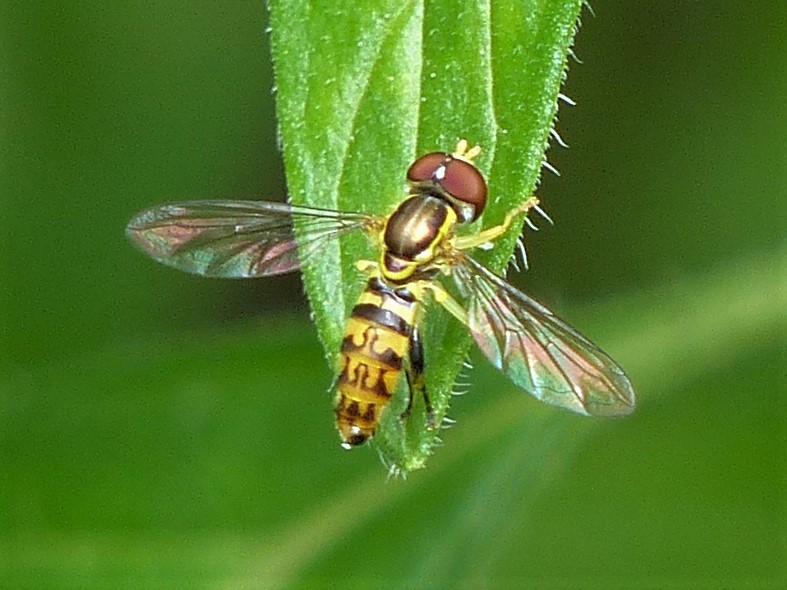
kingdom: Animalia
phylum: Arthropoda
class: Insecta
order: Diptera
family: Syrphidae
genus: Toxomerus
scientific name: Toxomerus geminatus
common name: Eastern calligrapher
